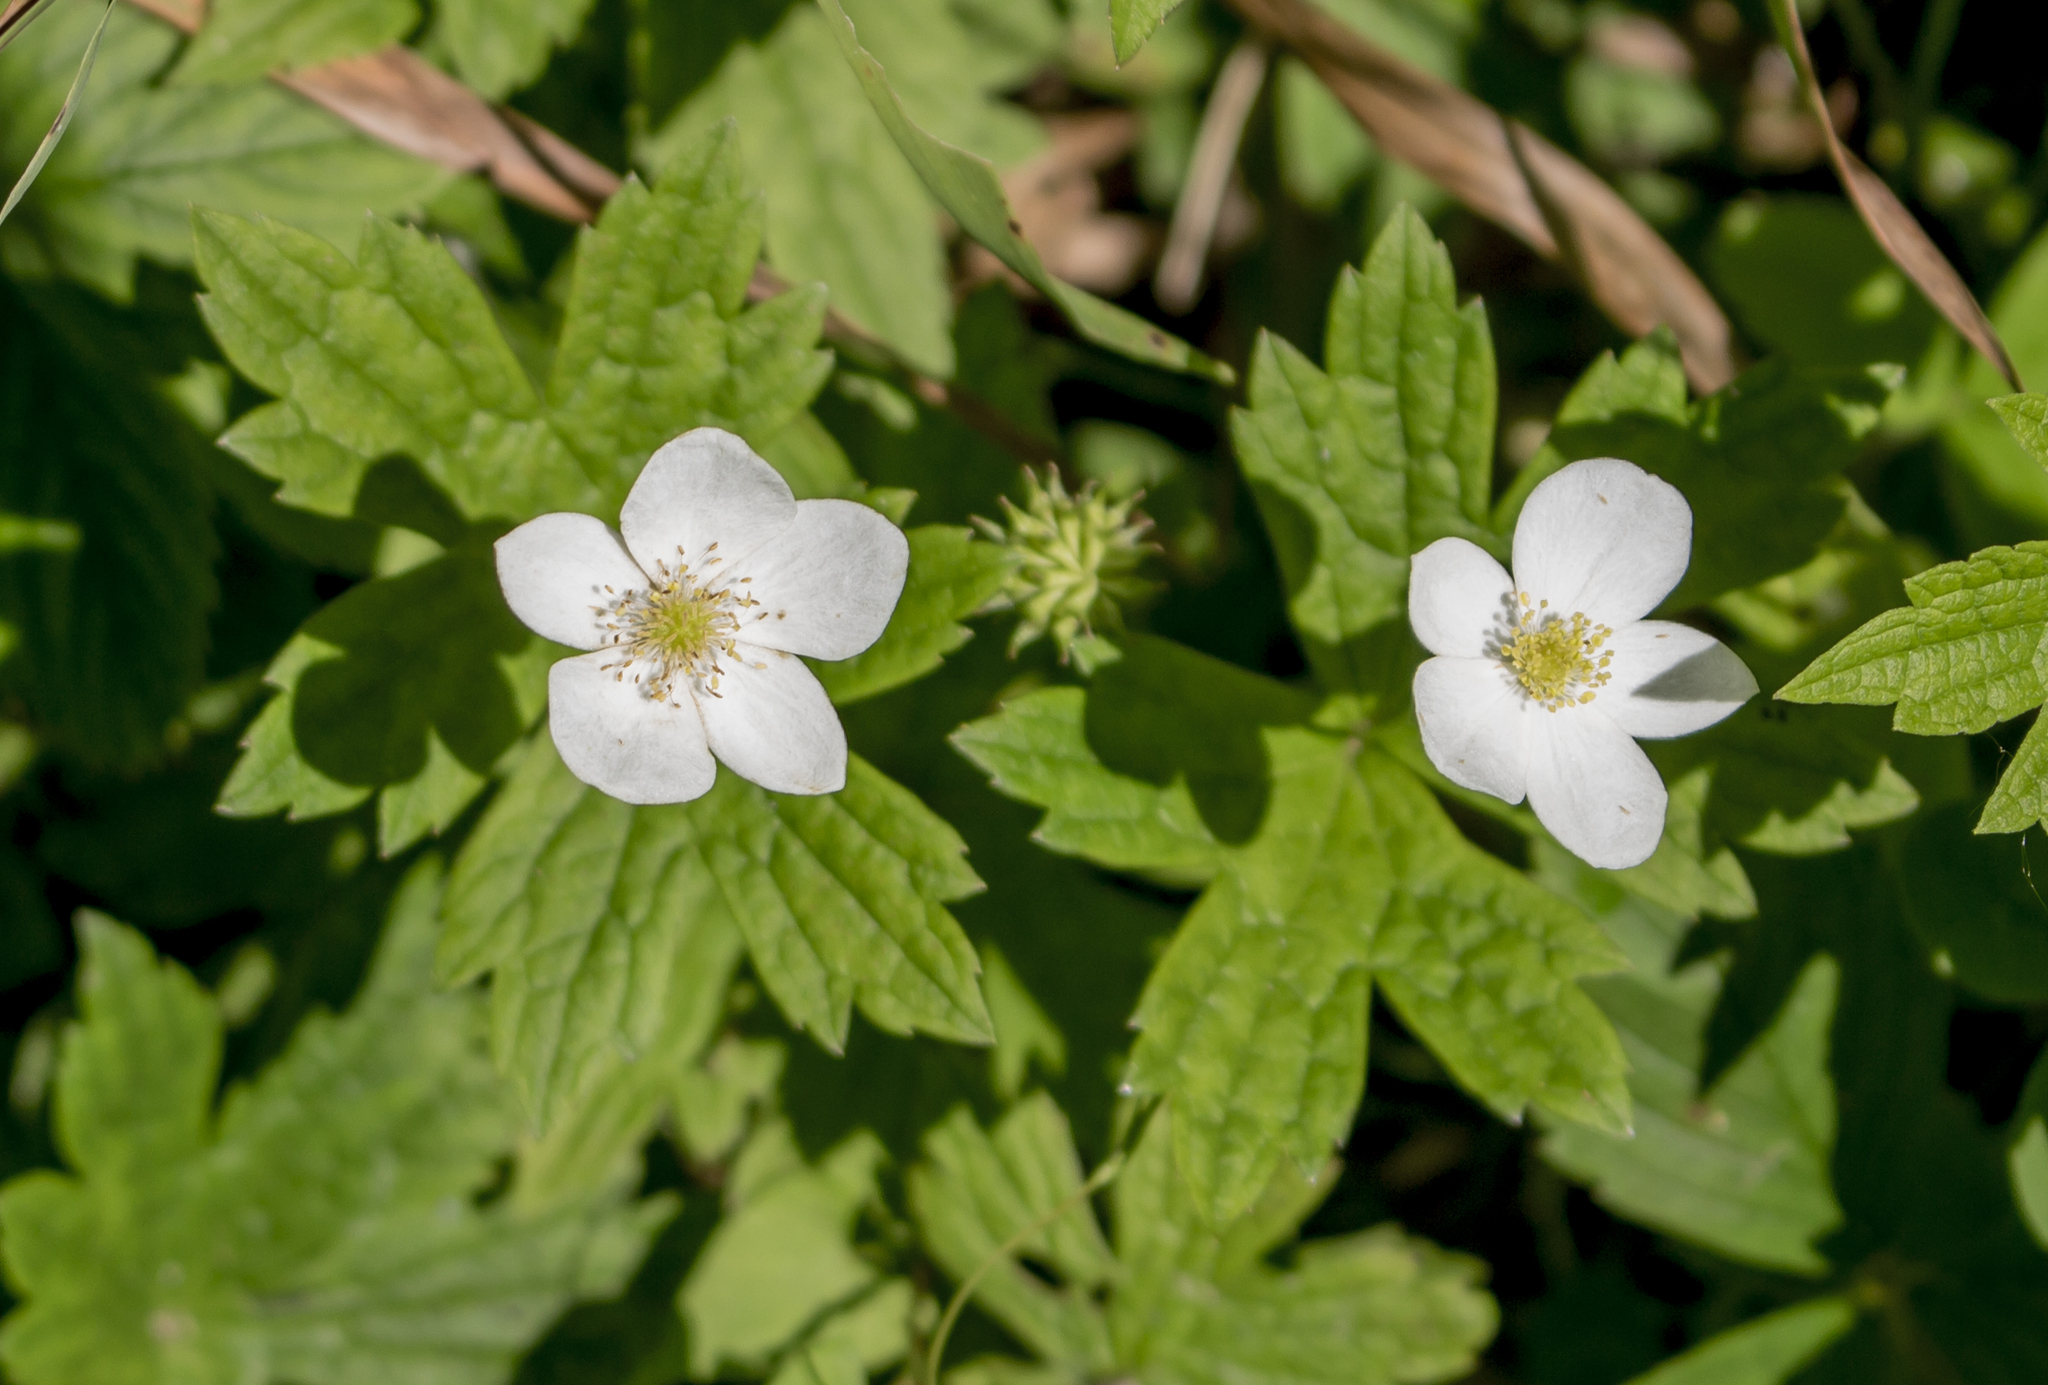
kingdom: Plantae
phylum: Tracheophyta
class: Magnoliopsida
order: Ranunculales
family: Ranunculaceae
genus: Anemonastrum
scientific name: Anemonastrum canadense
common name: Canada anemone
